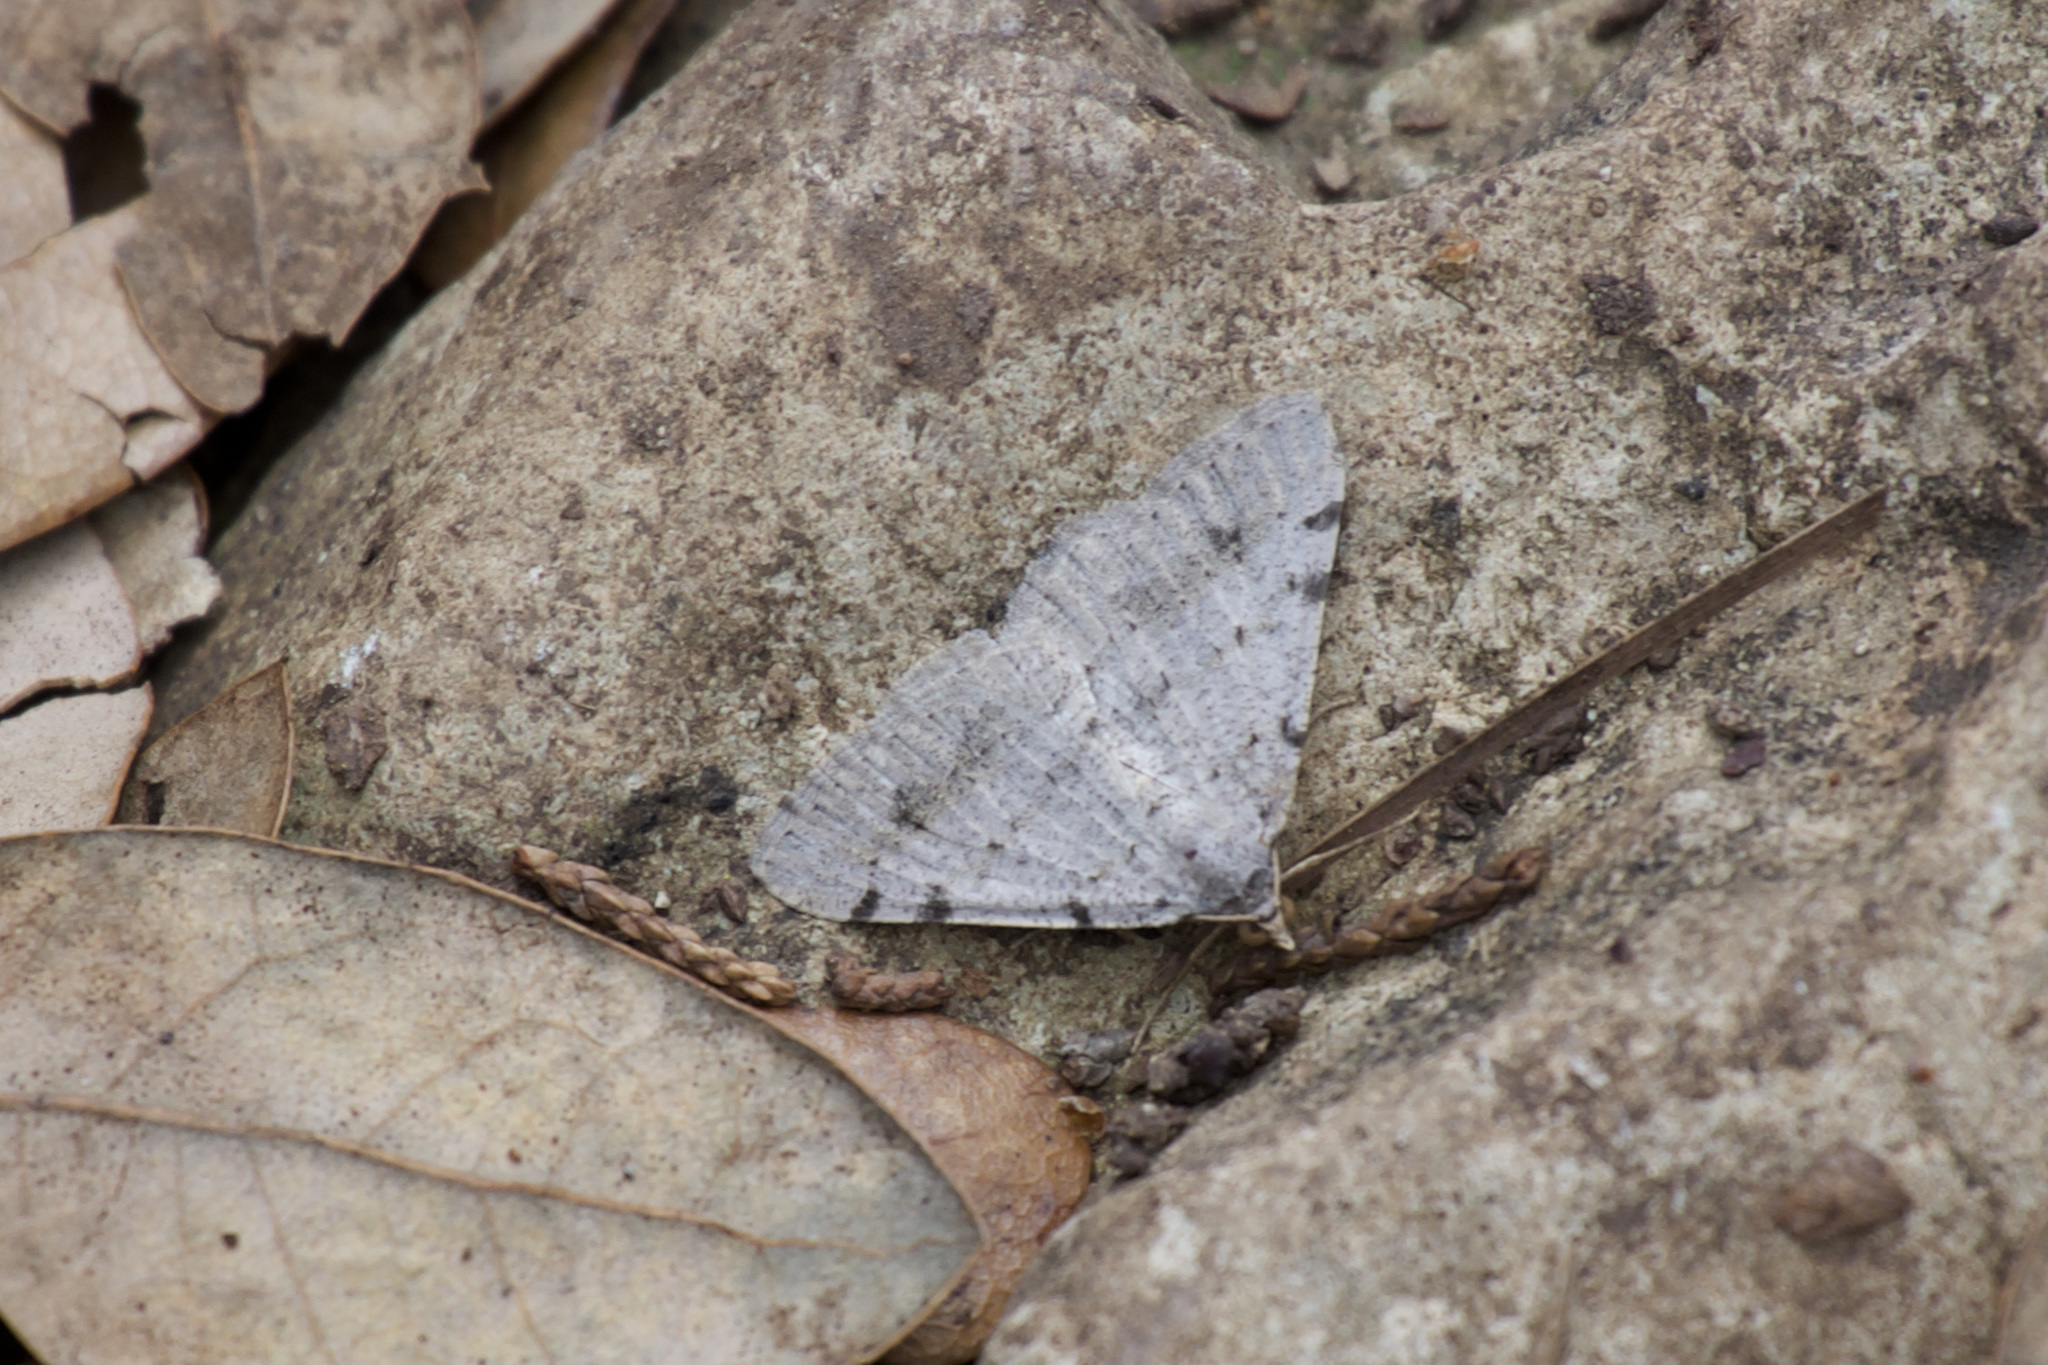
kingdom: Animalia
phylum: Arthropoda
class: Insecta
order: Lepidoptera
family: Geometridae
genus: Digrammia
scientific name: Digrammia pallidata
